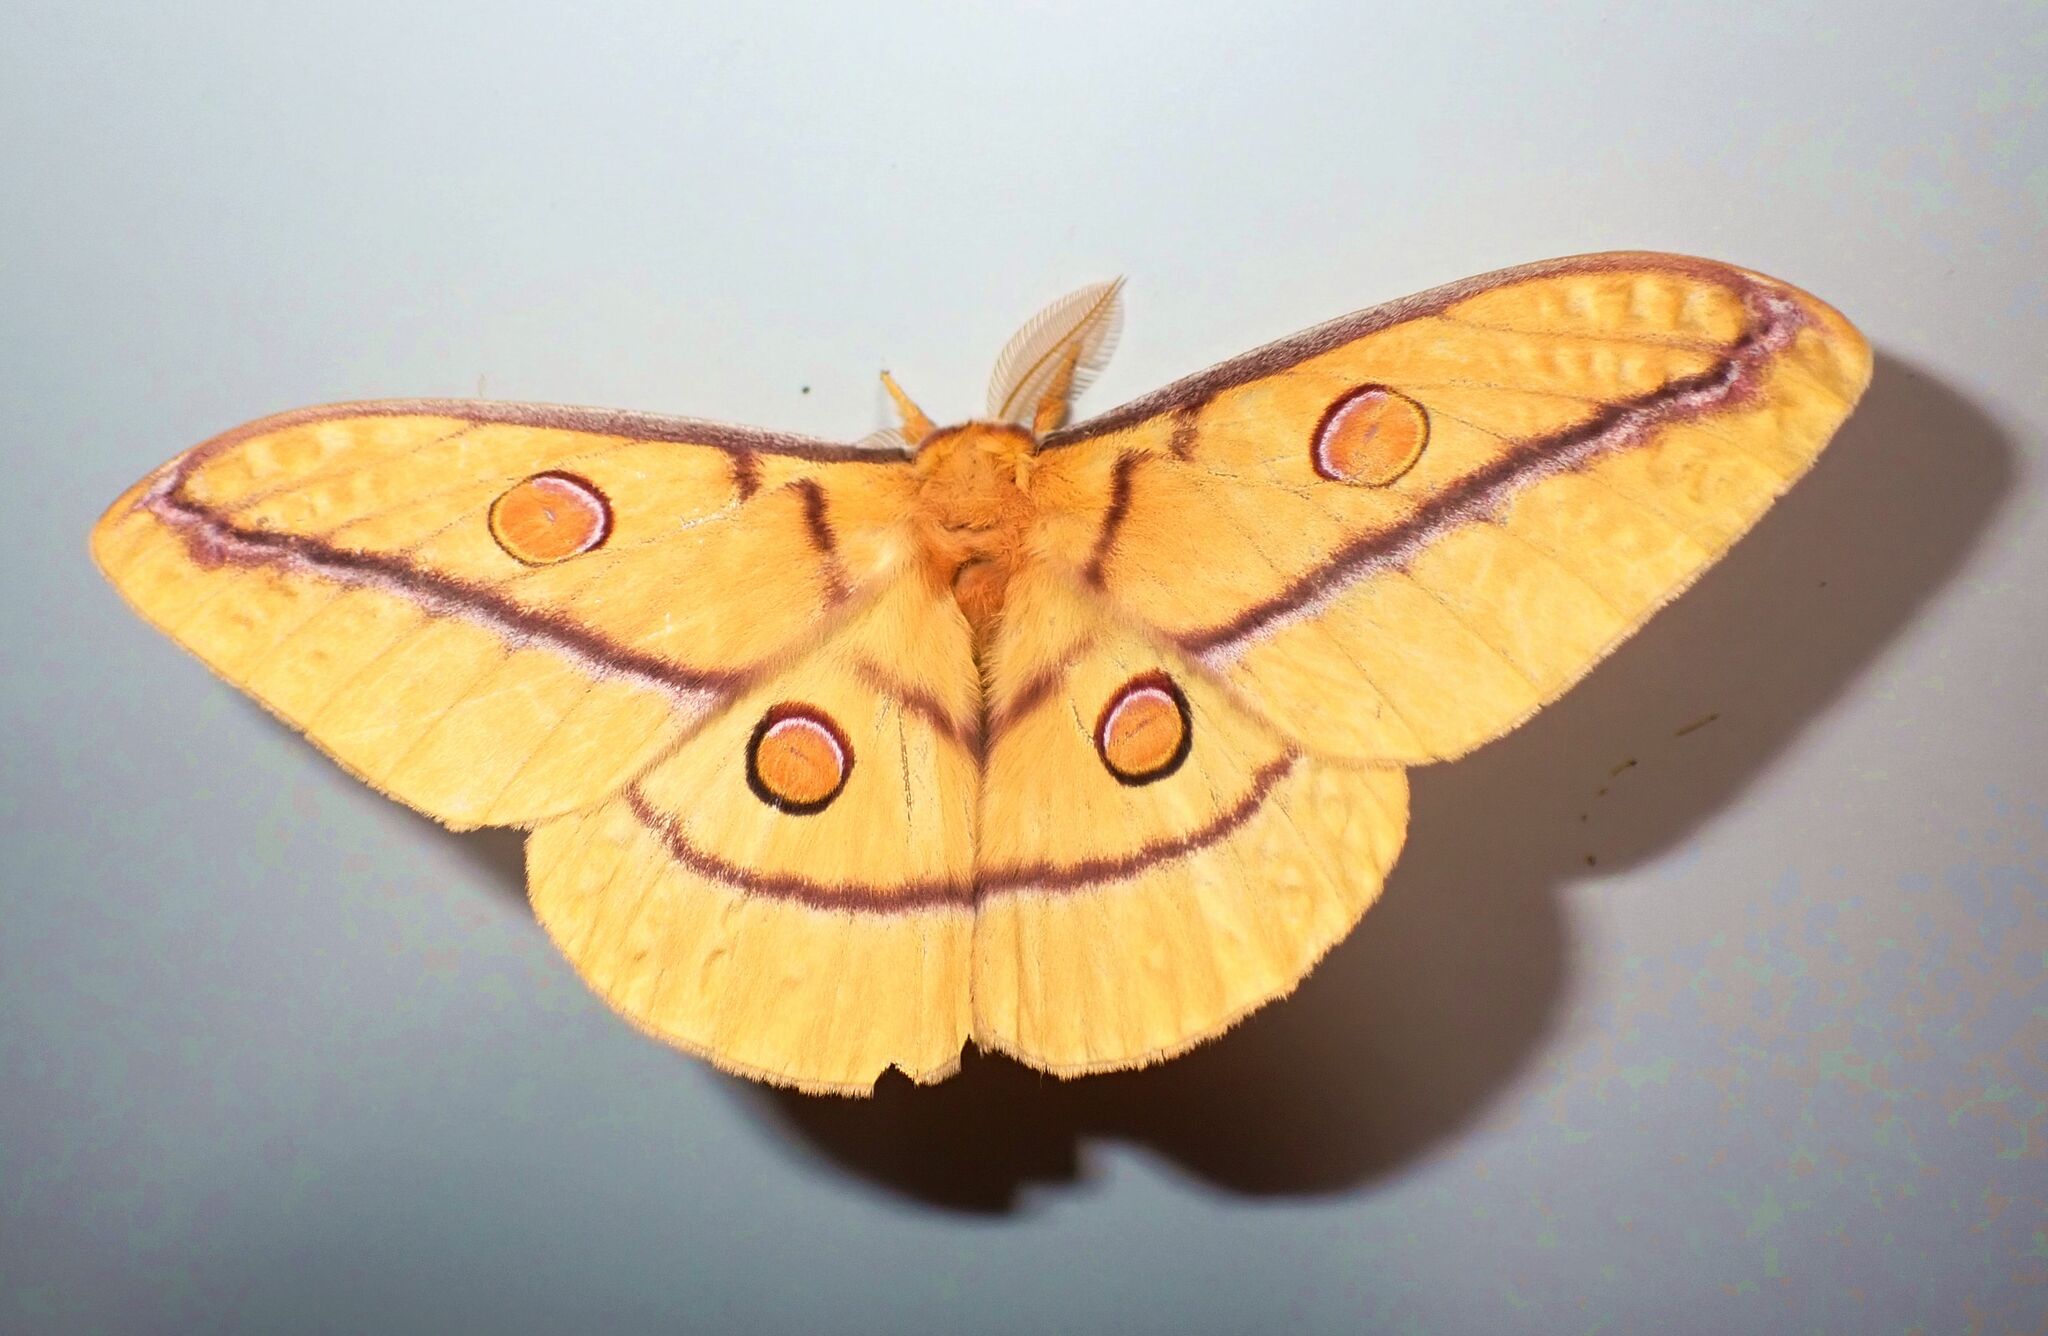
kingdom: Animalia
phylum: Arthropoda
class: Insecta
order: Lepidoptera
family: Saturniidae
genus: Opodiphthera
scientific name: Opodiphthera fervida
